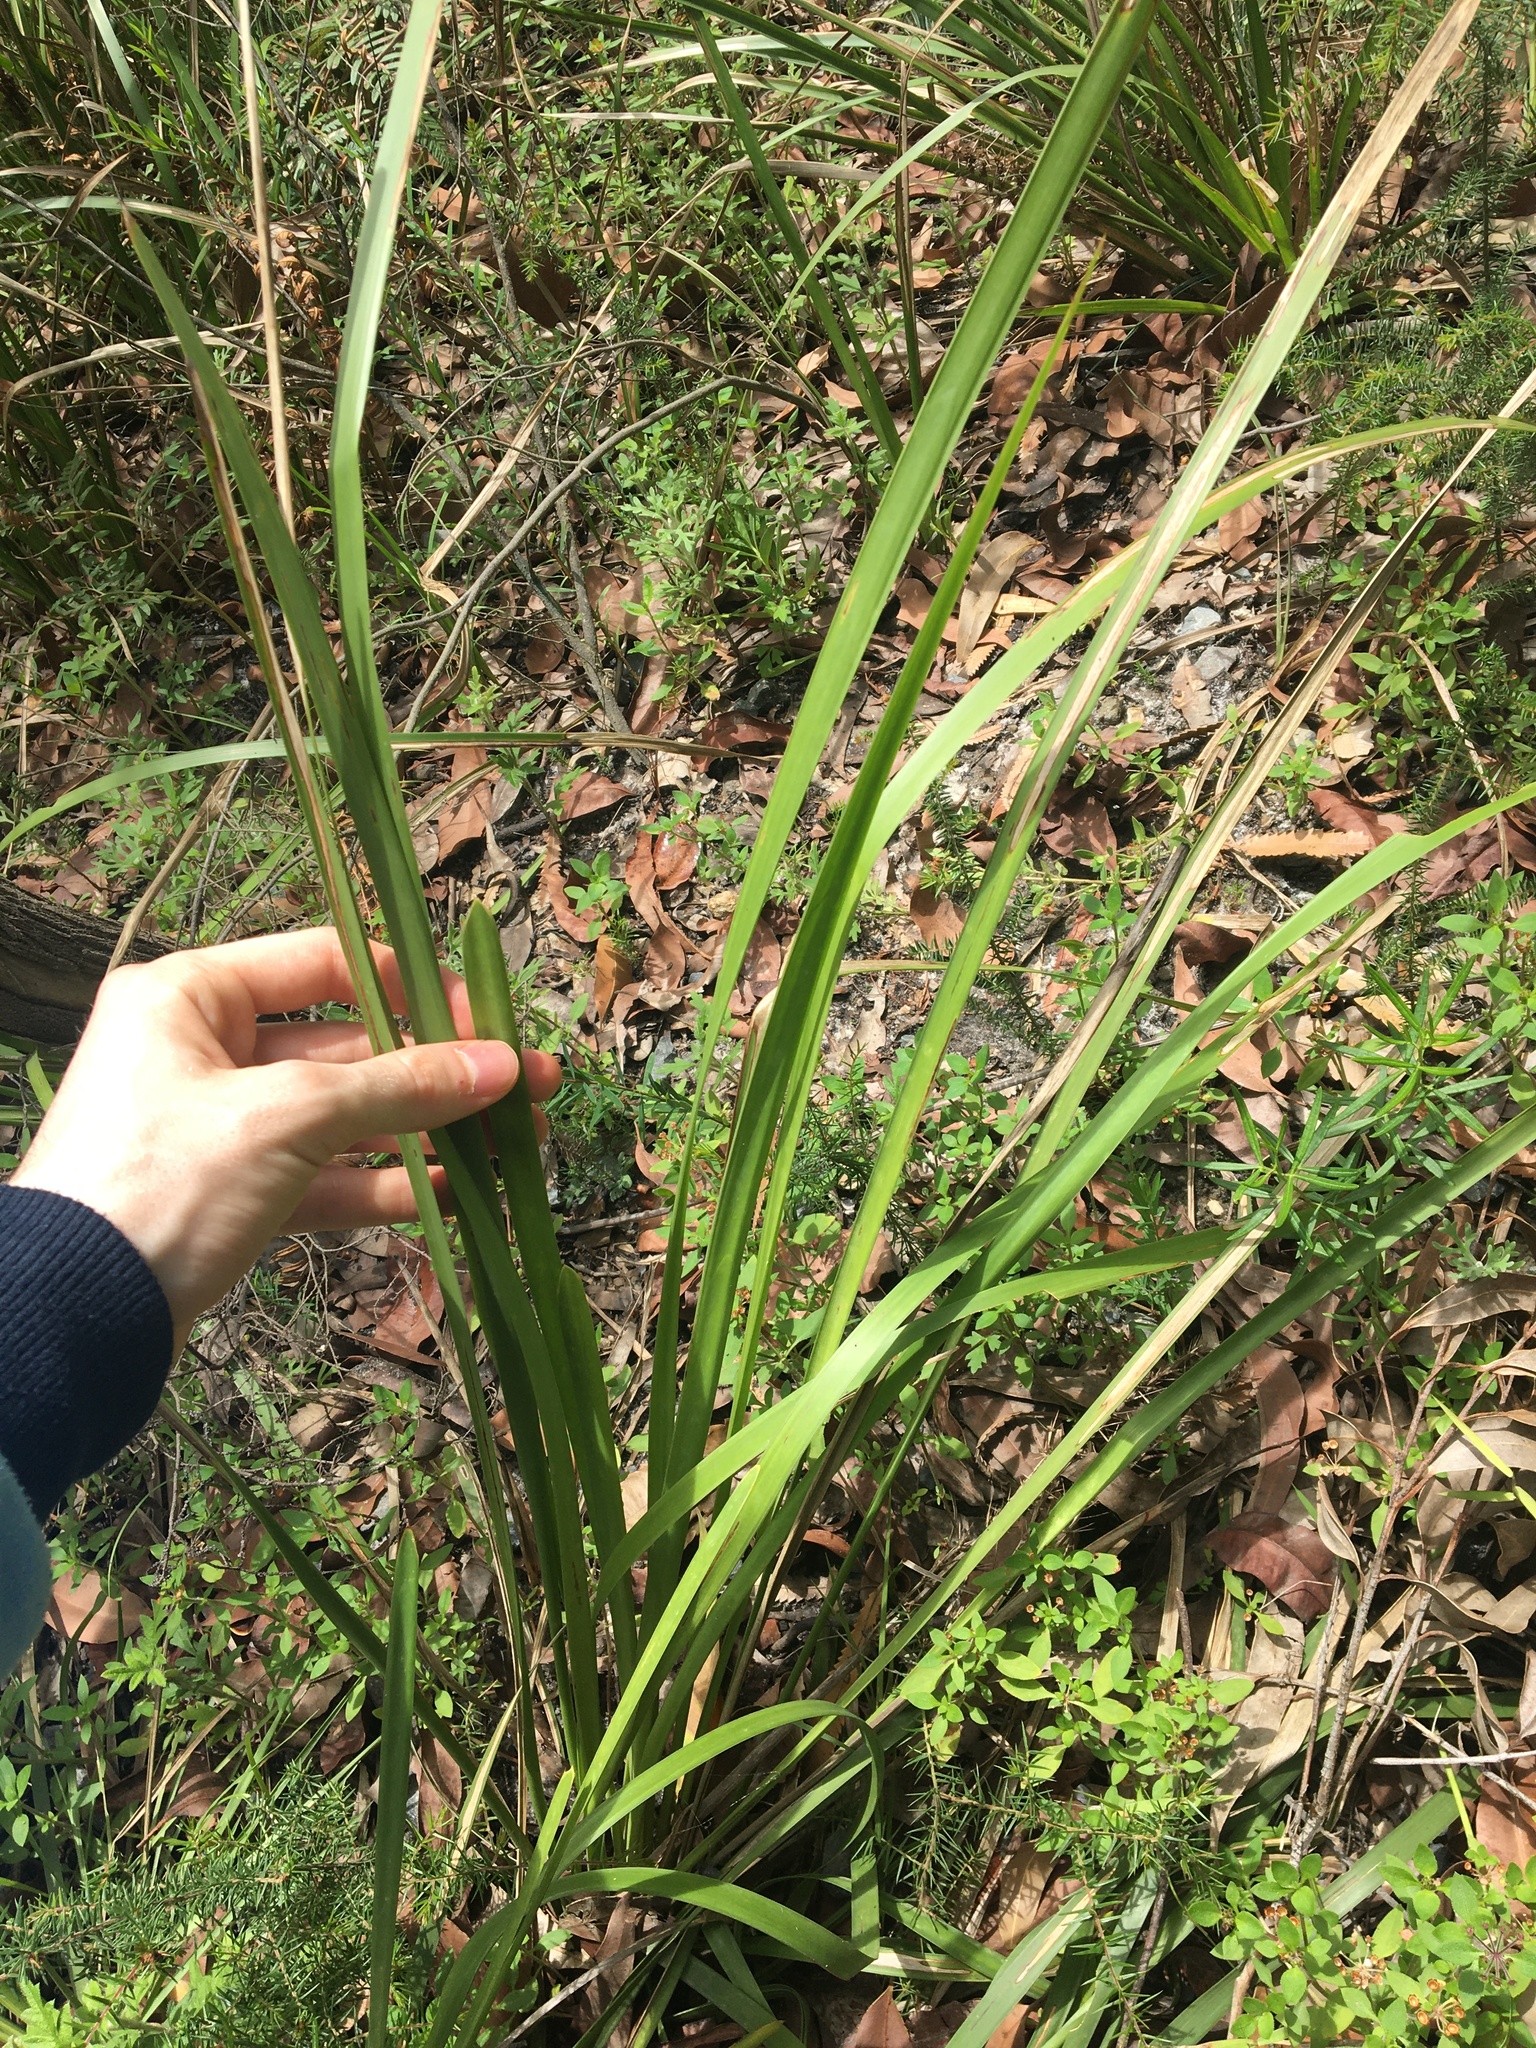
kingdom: Plantae
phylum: Tracheophyta
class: Liliopsida
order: Asparagales
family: Asparagaceae
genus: Lomandra
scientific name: Lomandra longifolia
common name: Longleaf mat-rush
